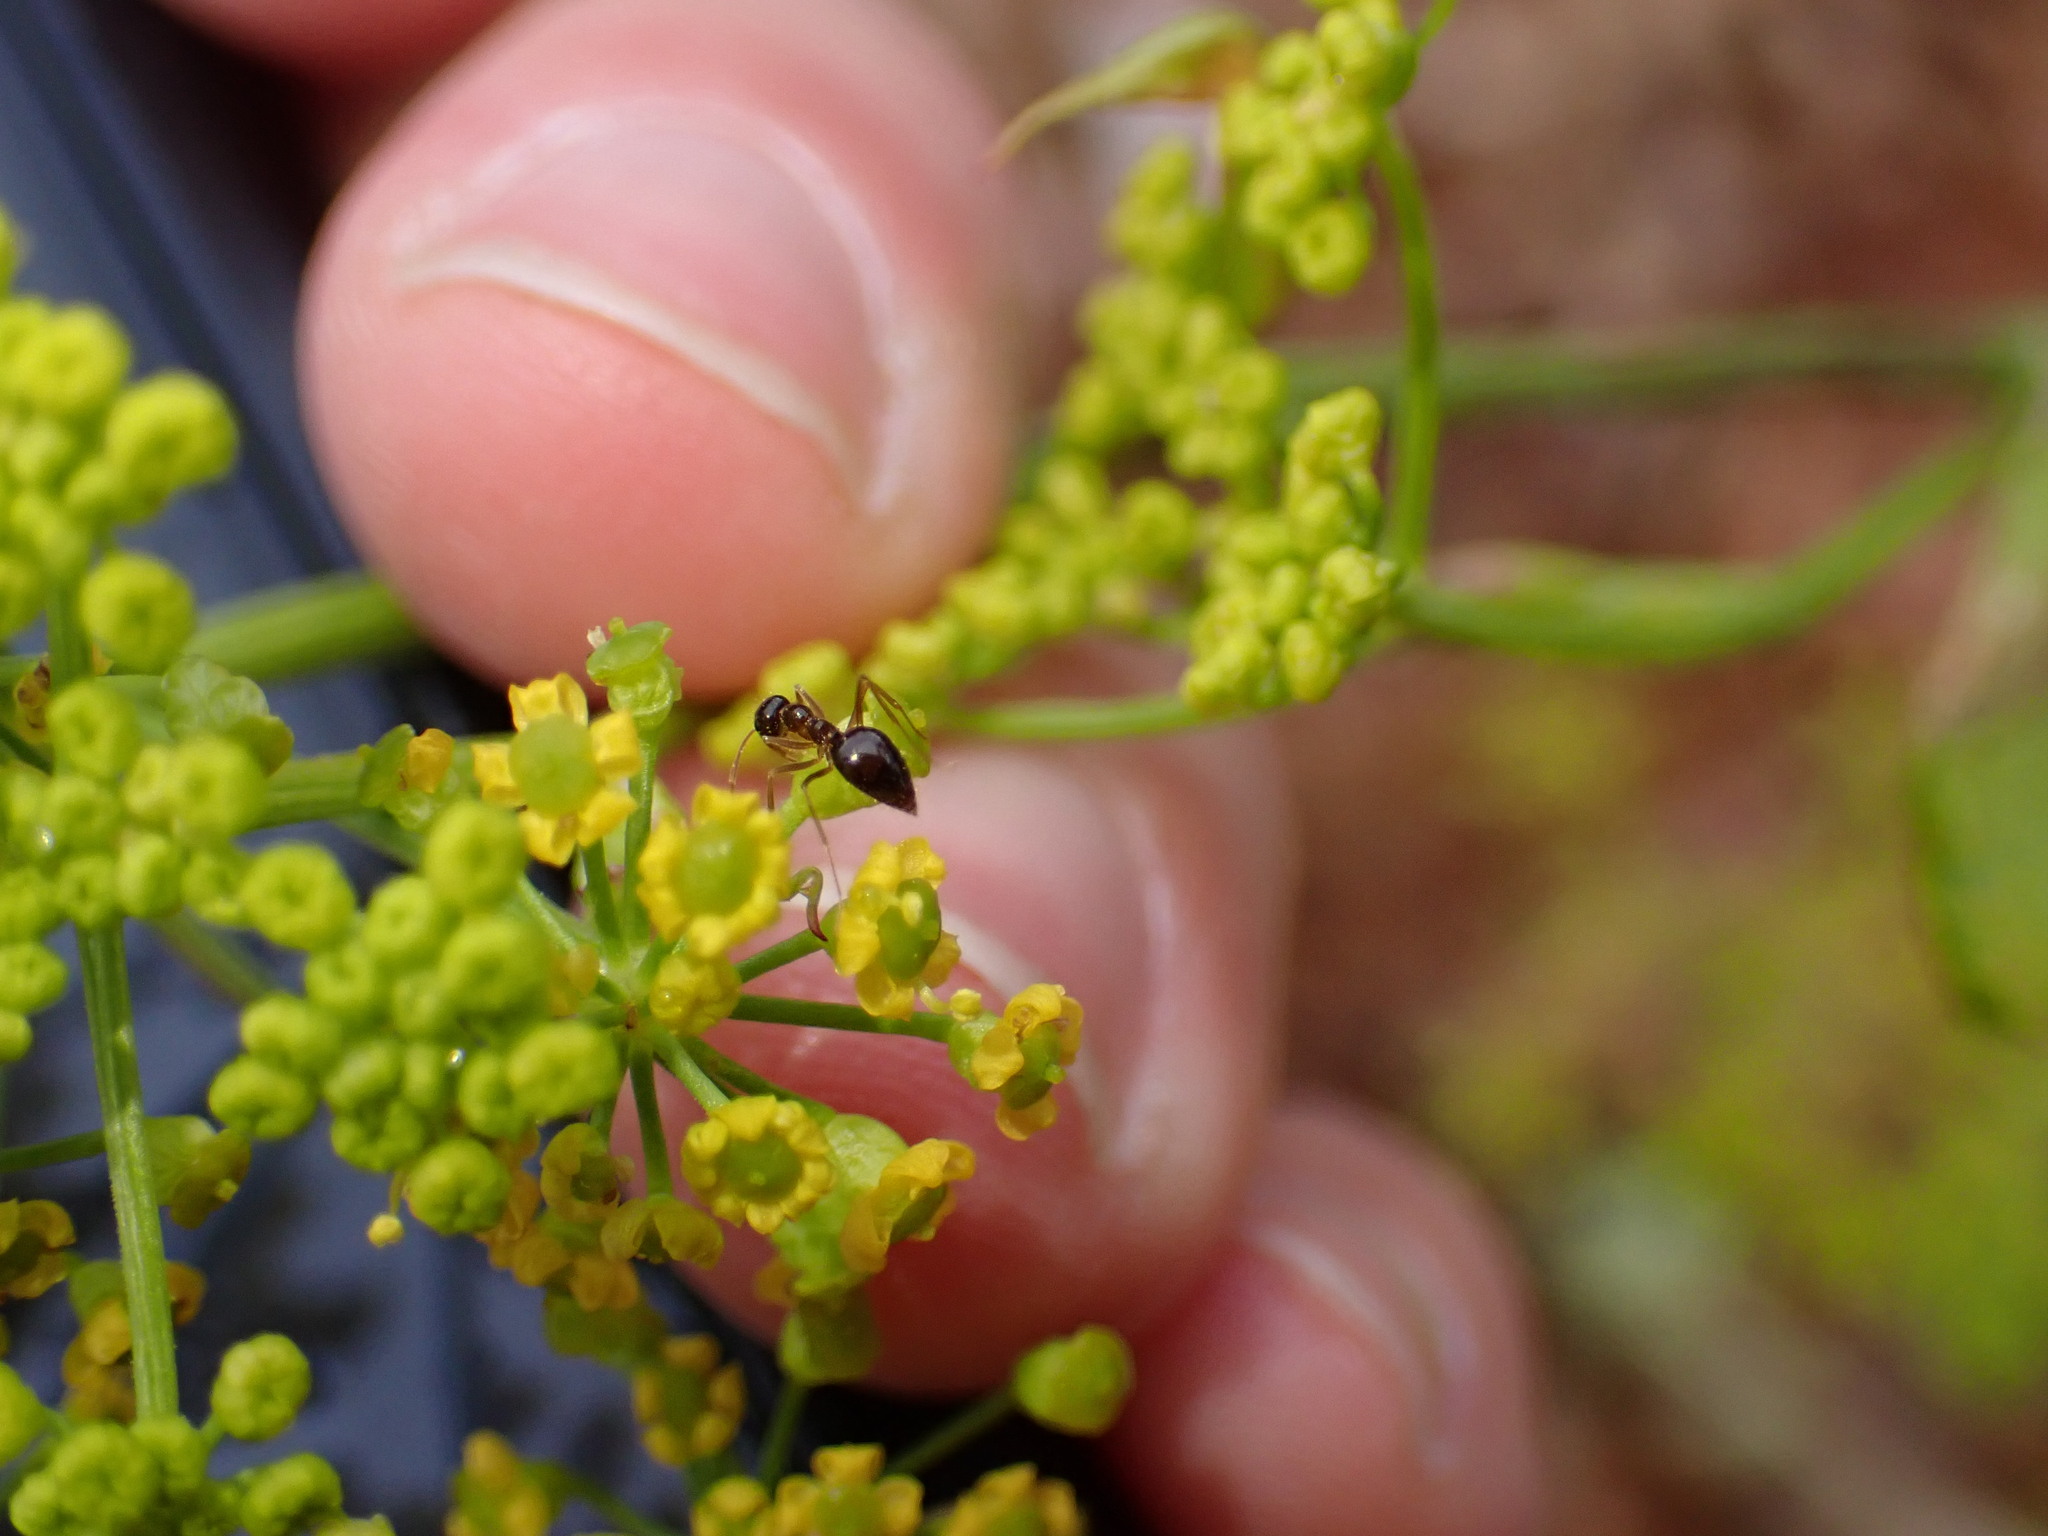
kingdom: Animalia
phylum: Arthropoda
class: Insecta
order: Hymenoptera
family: Formicidae
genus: Prenolepis
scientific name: Prenolepis imparis
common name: Small honey ant
